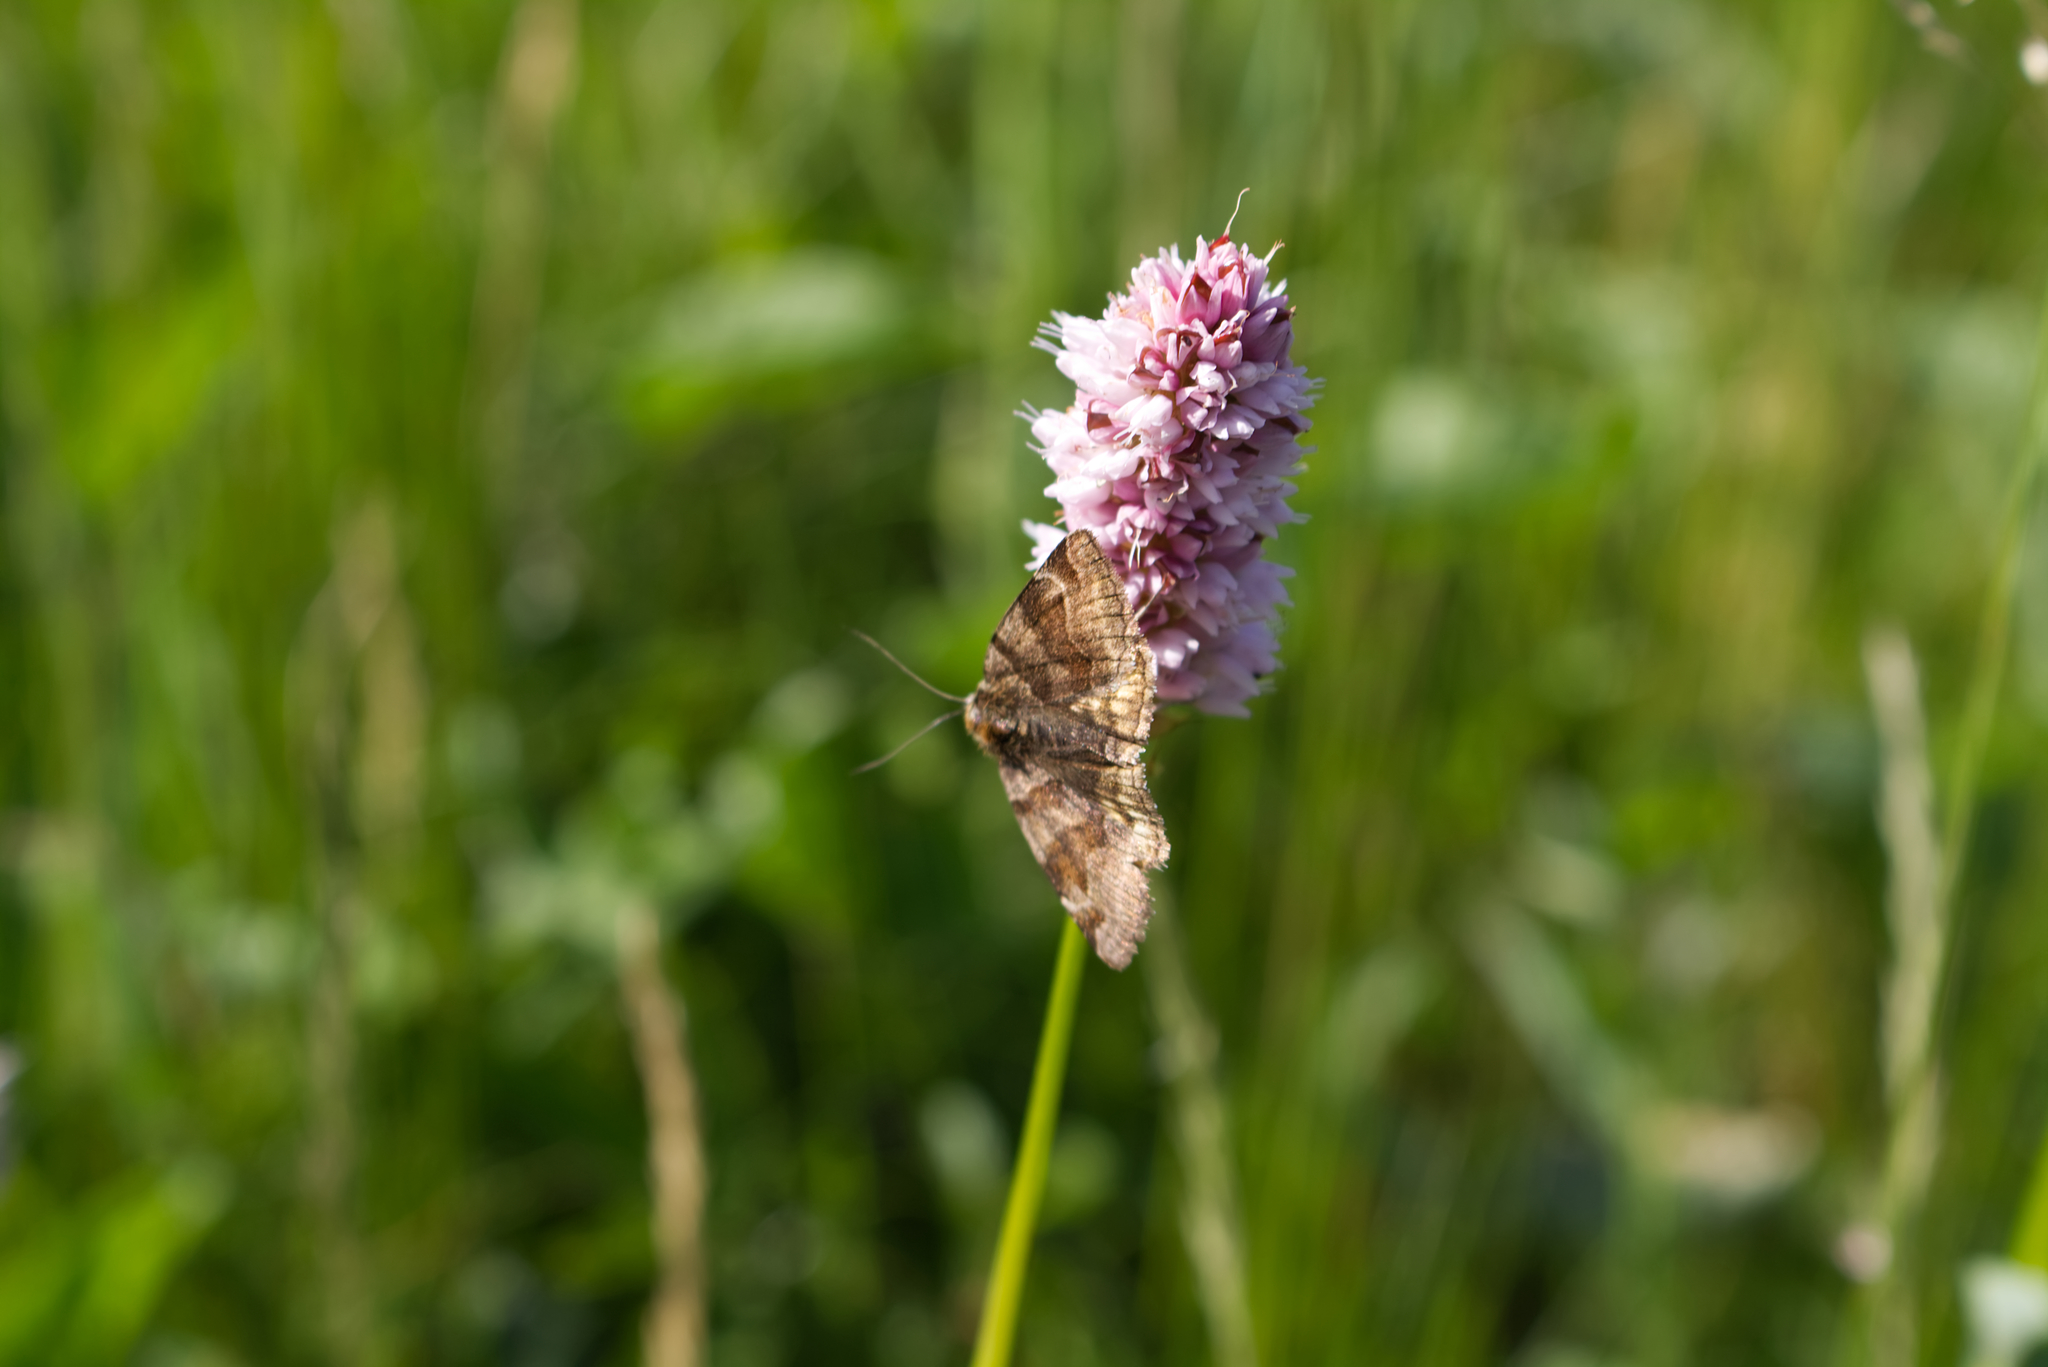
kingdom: Animalia
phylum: Arthropoda
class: Insecta
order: Lepidoptera
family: Erebidae
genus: Euclidia
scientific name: Euclidia glyphica
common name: Burnet companion
